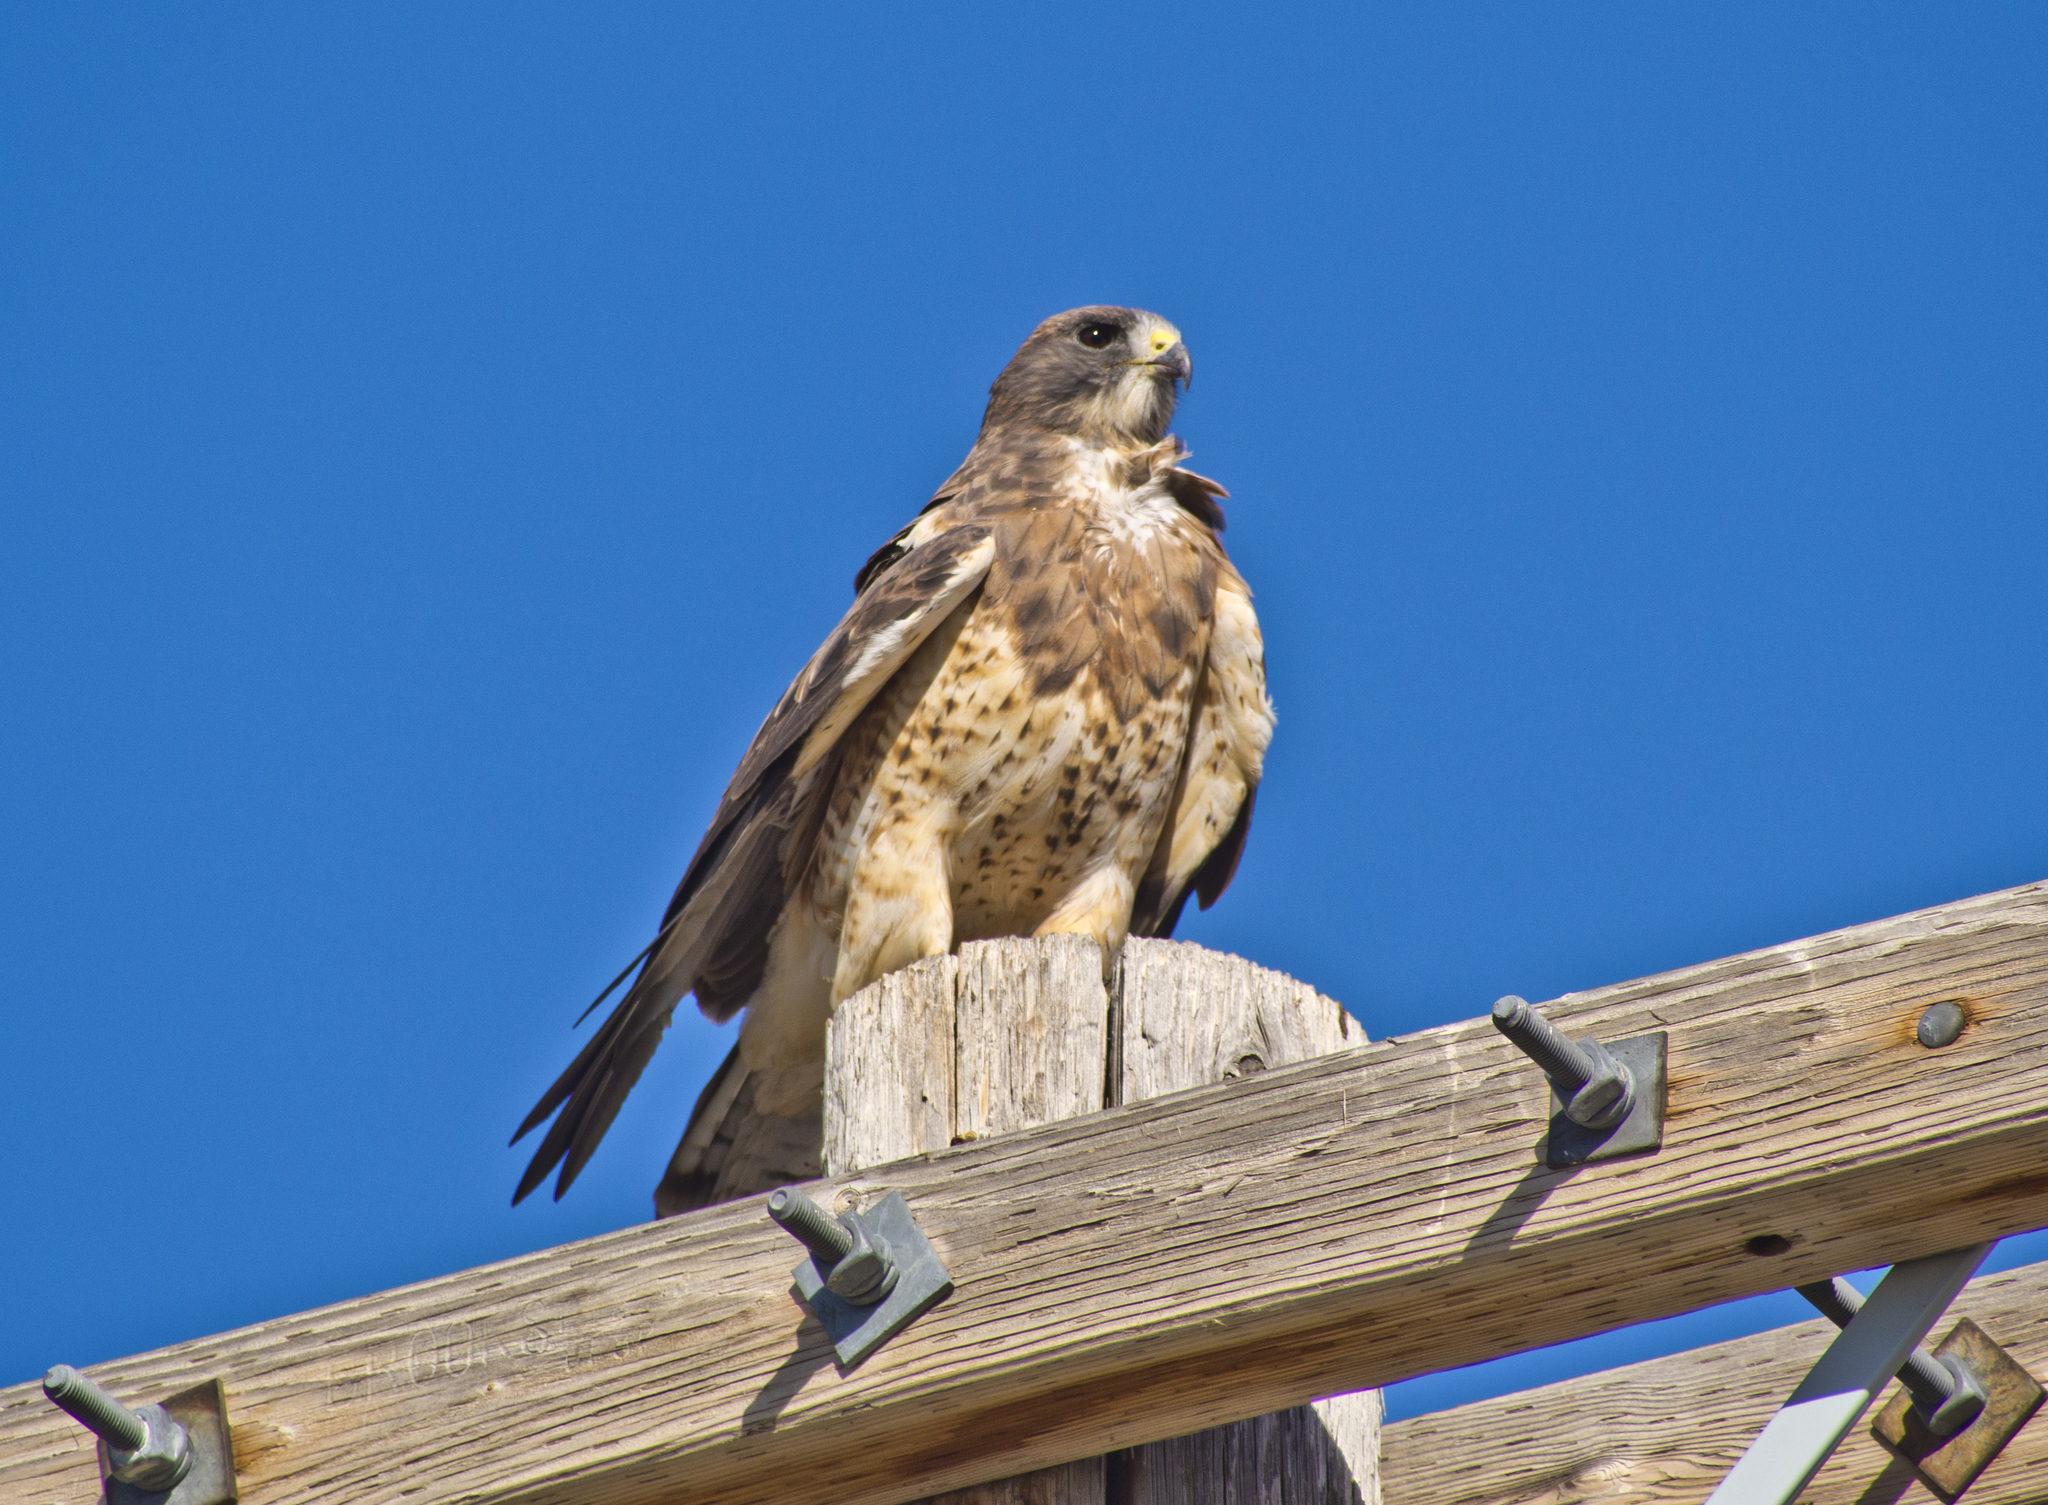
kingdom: Animalia
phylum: Chordata
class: Aves
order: Accipitriformes
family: Accipitridae
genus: Buteo
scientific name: Buteo swainsoni
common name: Swainson's hawk
